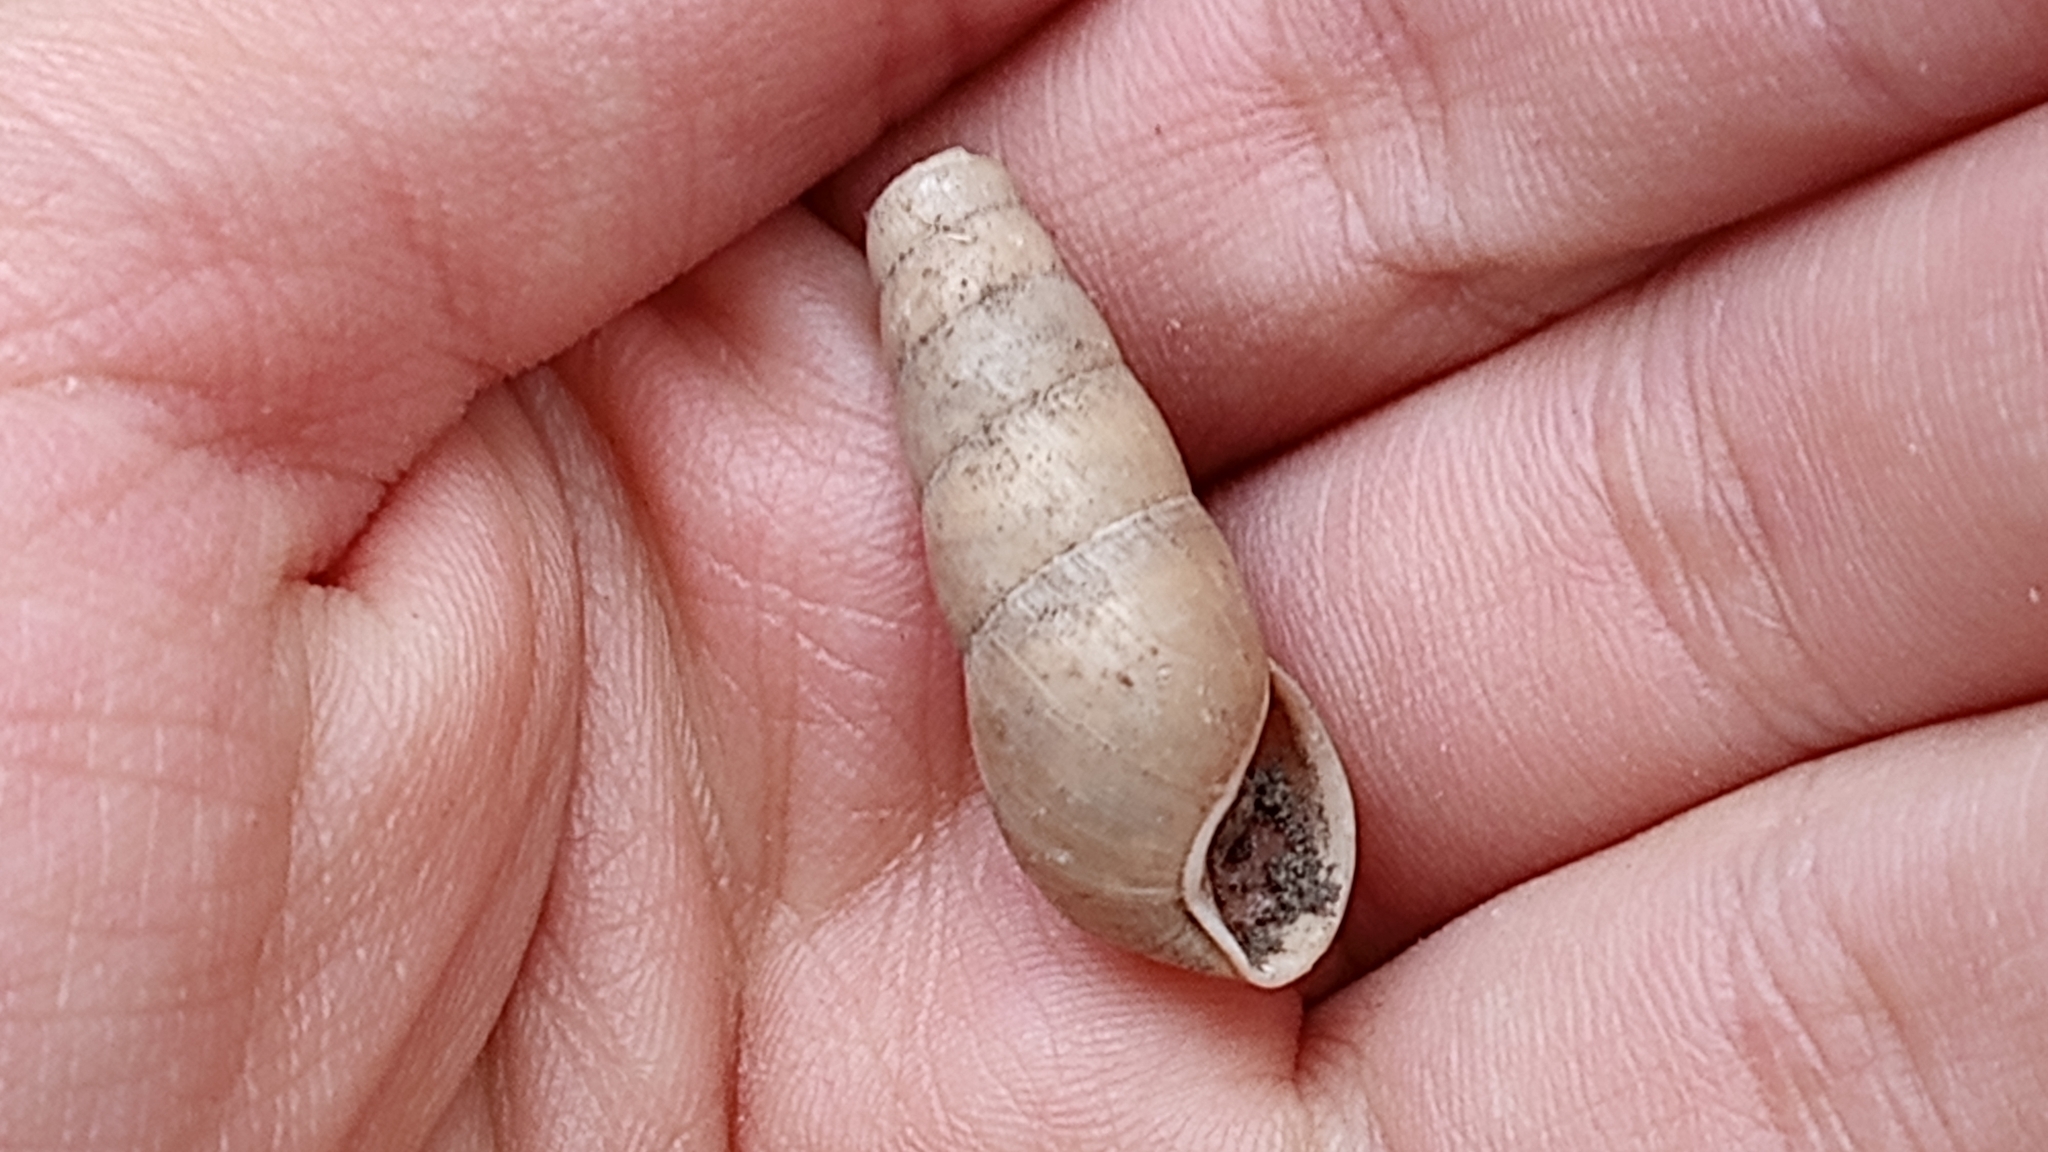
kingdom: Animalia
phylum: Mollusca
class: Gastropoda
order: Stylommatophora
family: Achatinidae
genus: Rumina
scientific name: Rumina decollata
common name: Decollate snail
